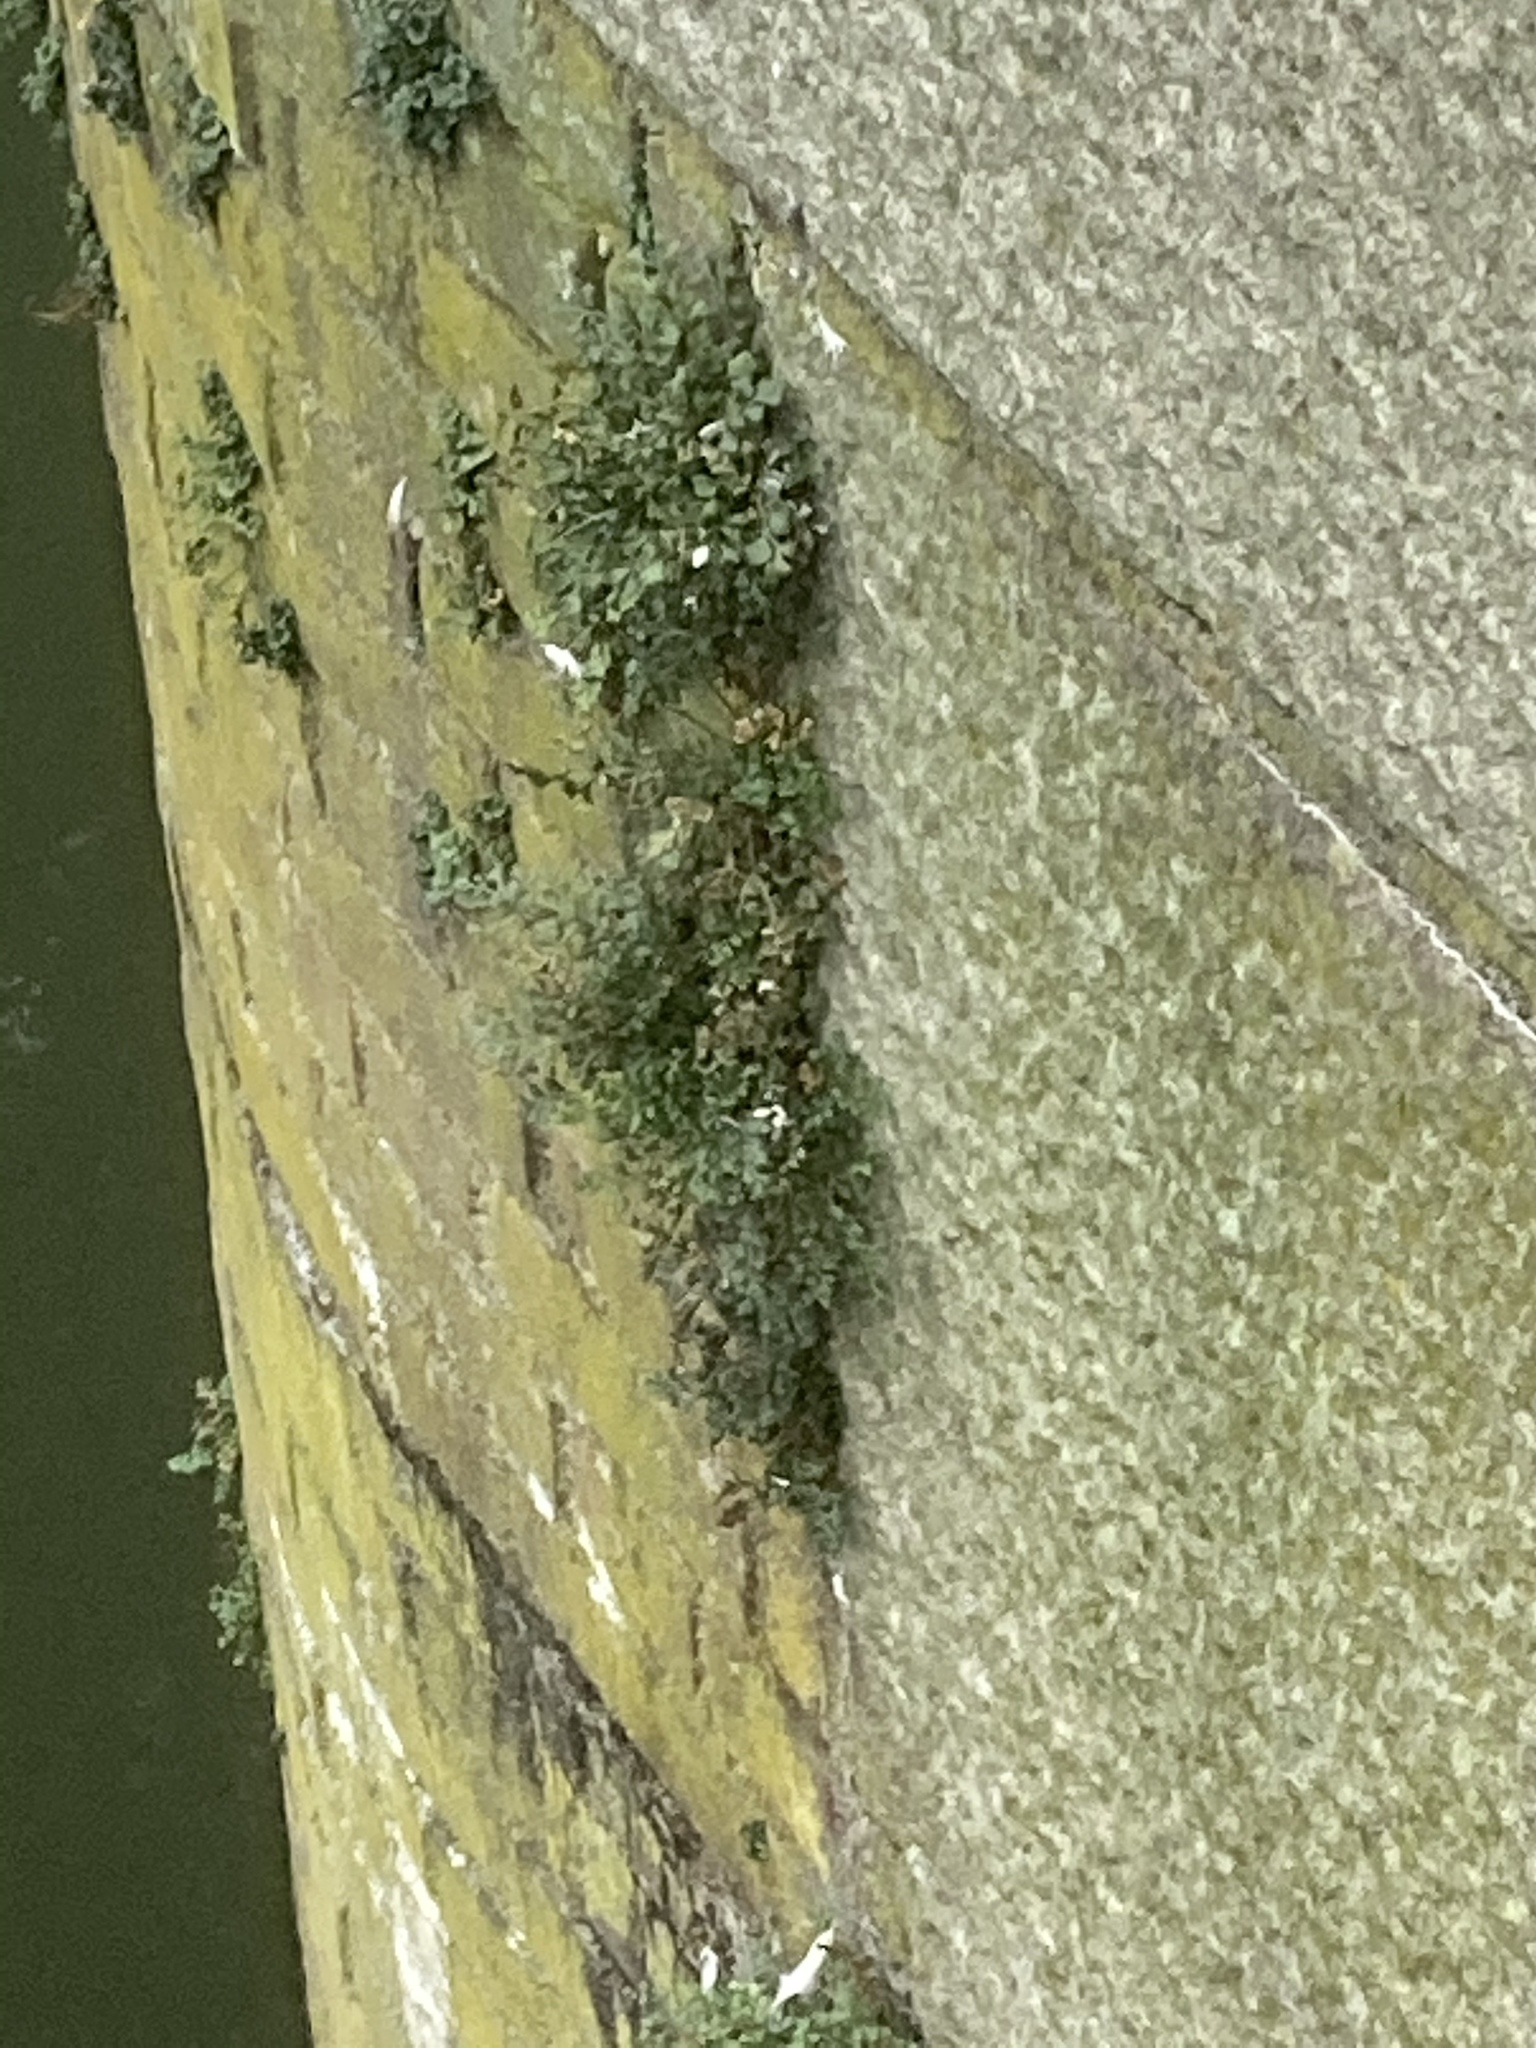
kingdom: Plantae
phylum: Tracheophyta
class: Polypodiopsida
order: Polypodiales
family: Aspleniaceae
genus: Asplenium
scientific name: Asplenium ruta-muraria
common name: Wall-rue
